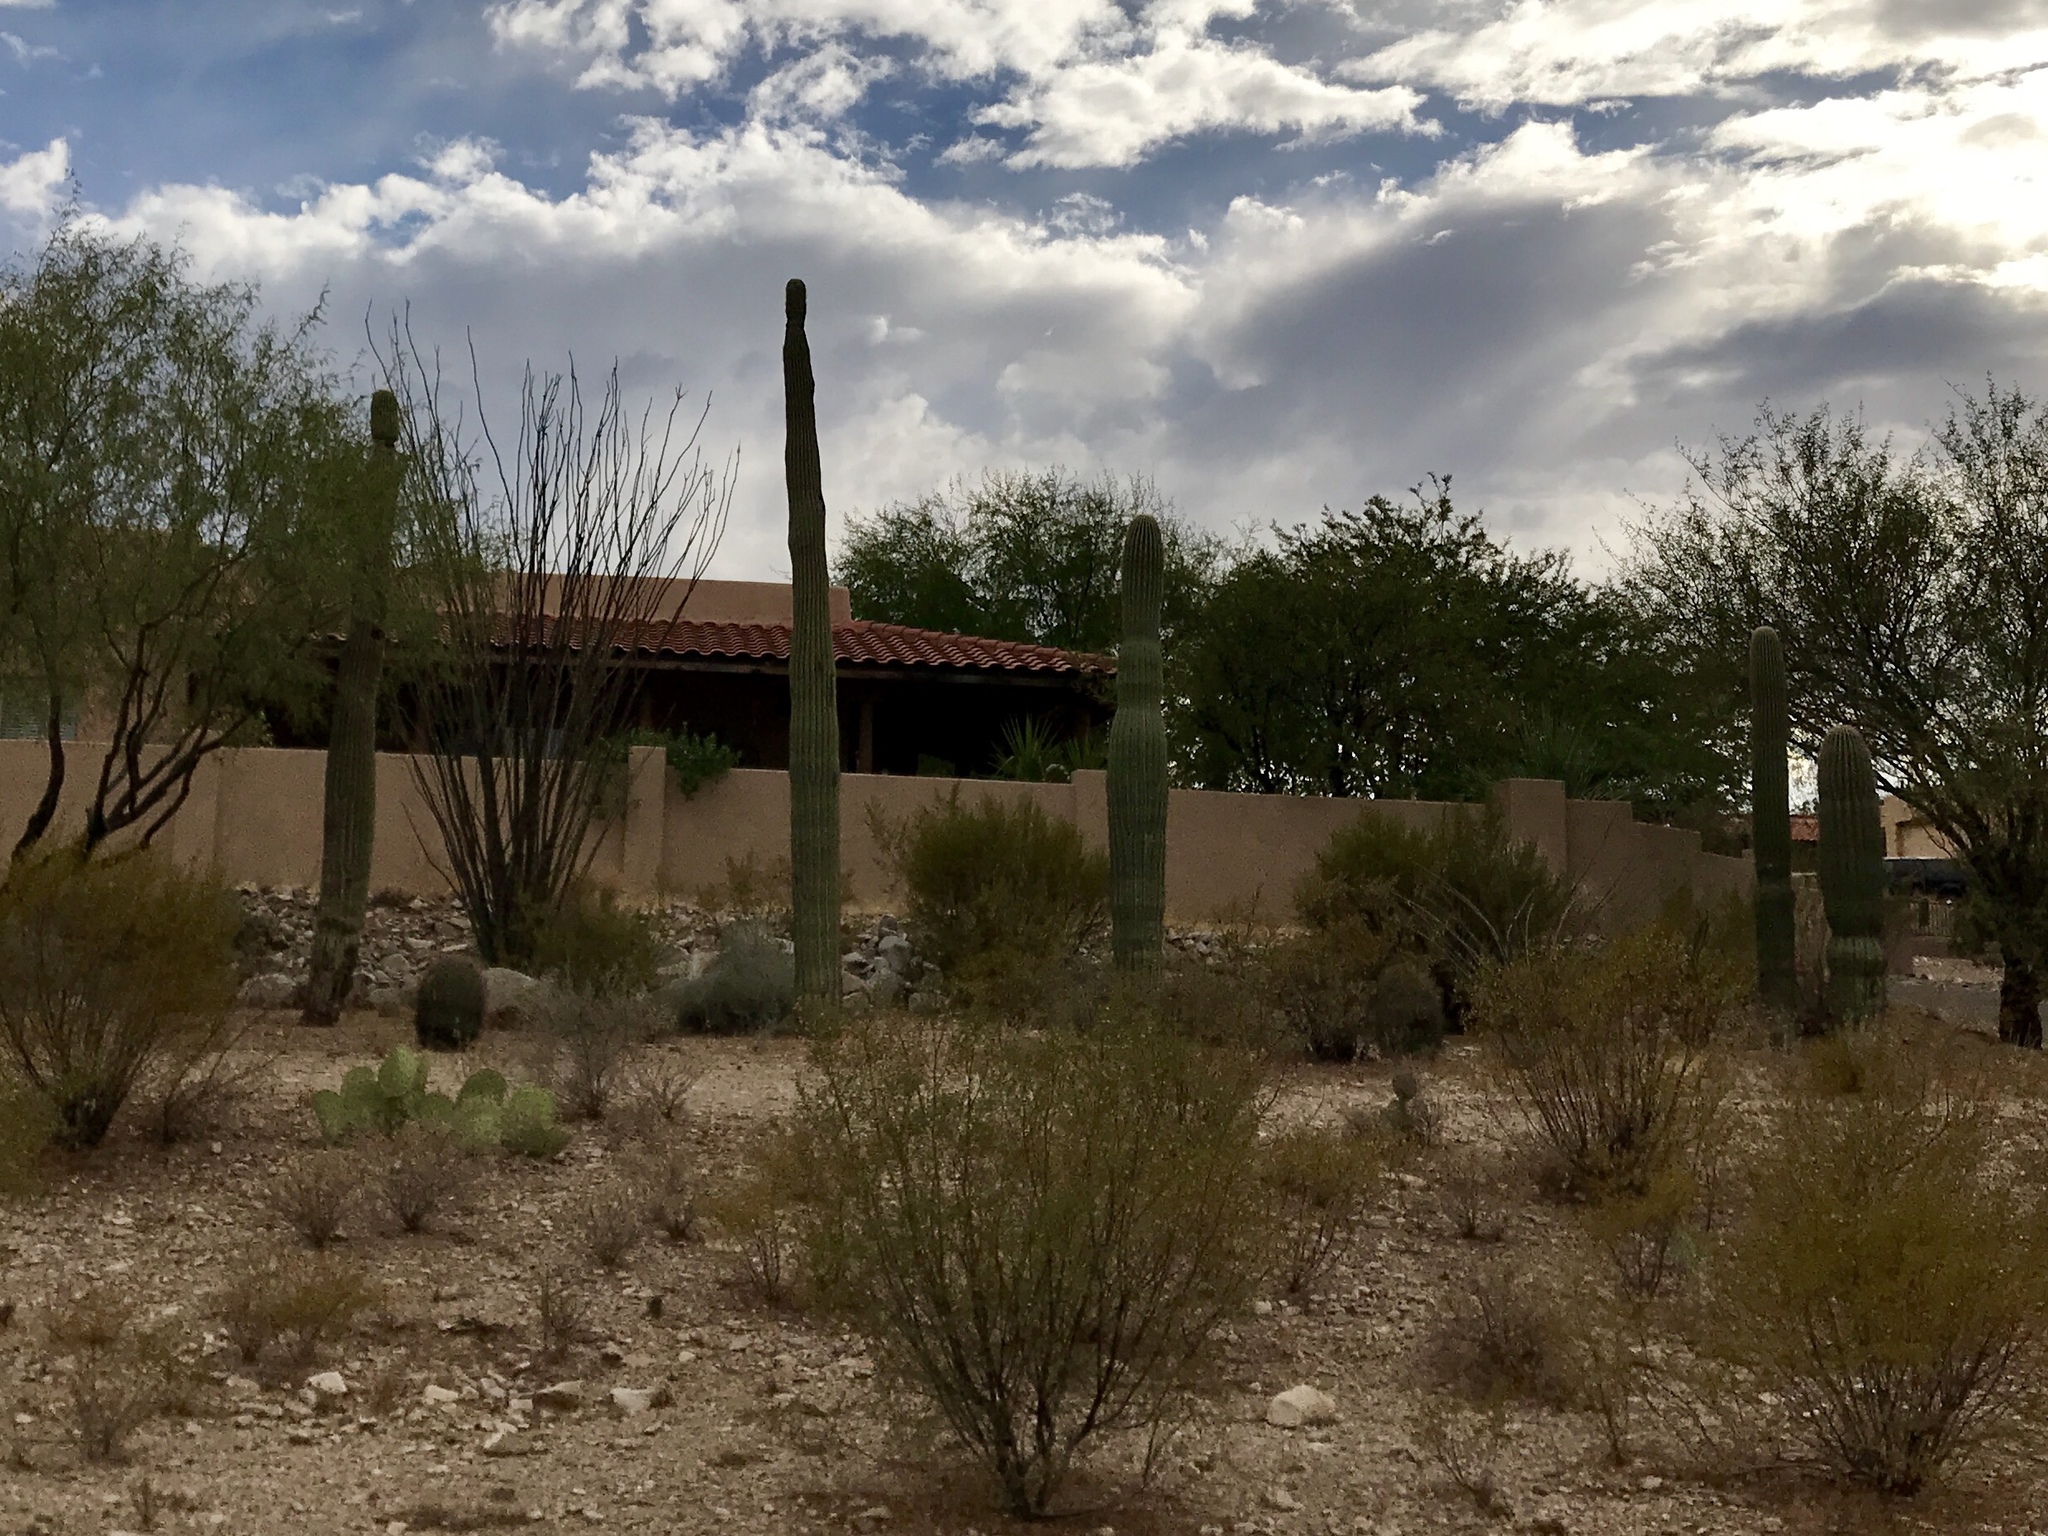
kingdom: Plantae
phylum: Tracheophyta
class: Magnoliopsida
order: Caryophyllales
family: Cactaceae
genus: Carnegiea
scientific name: Carnegiea gigantea
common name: Saguaro
